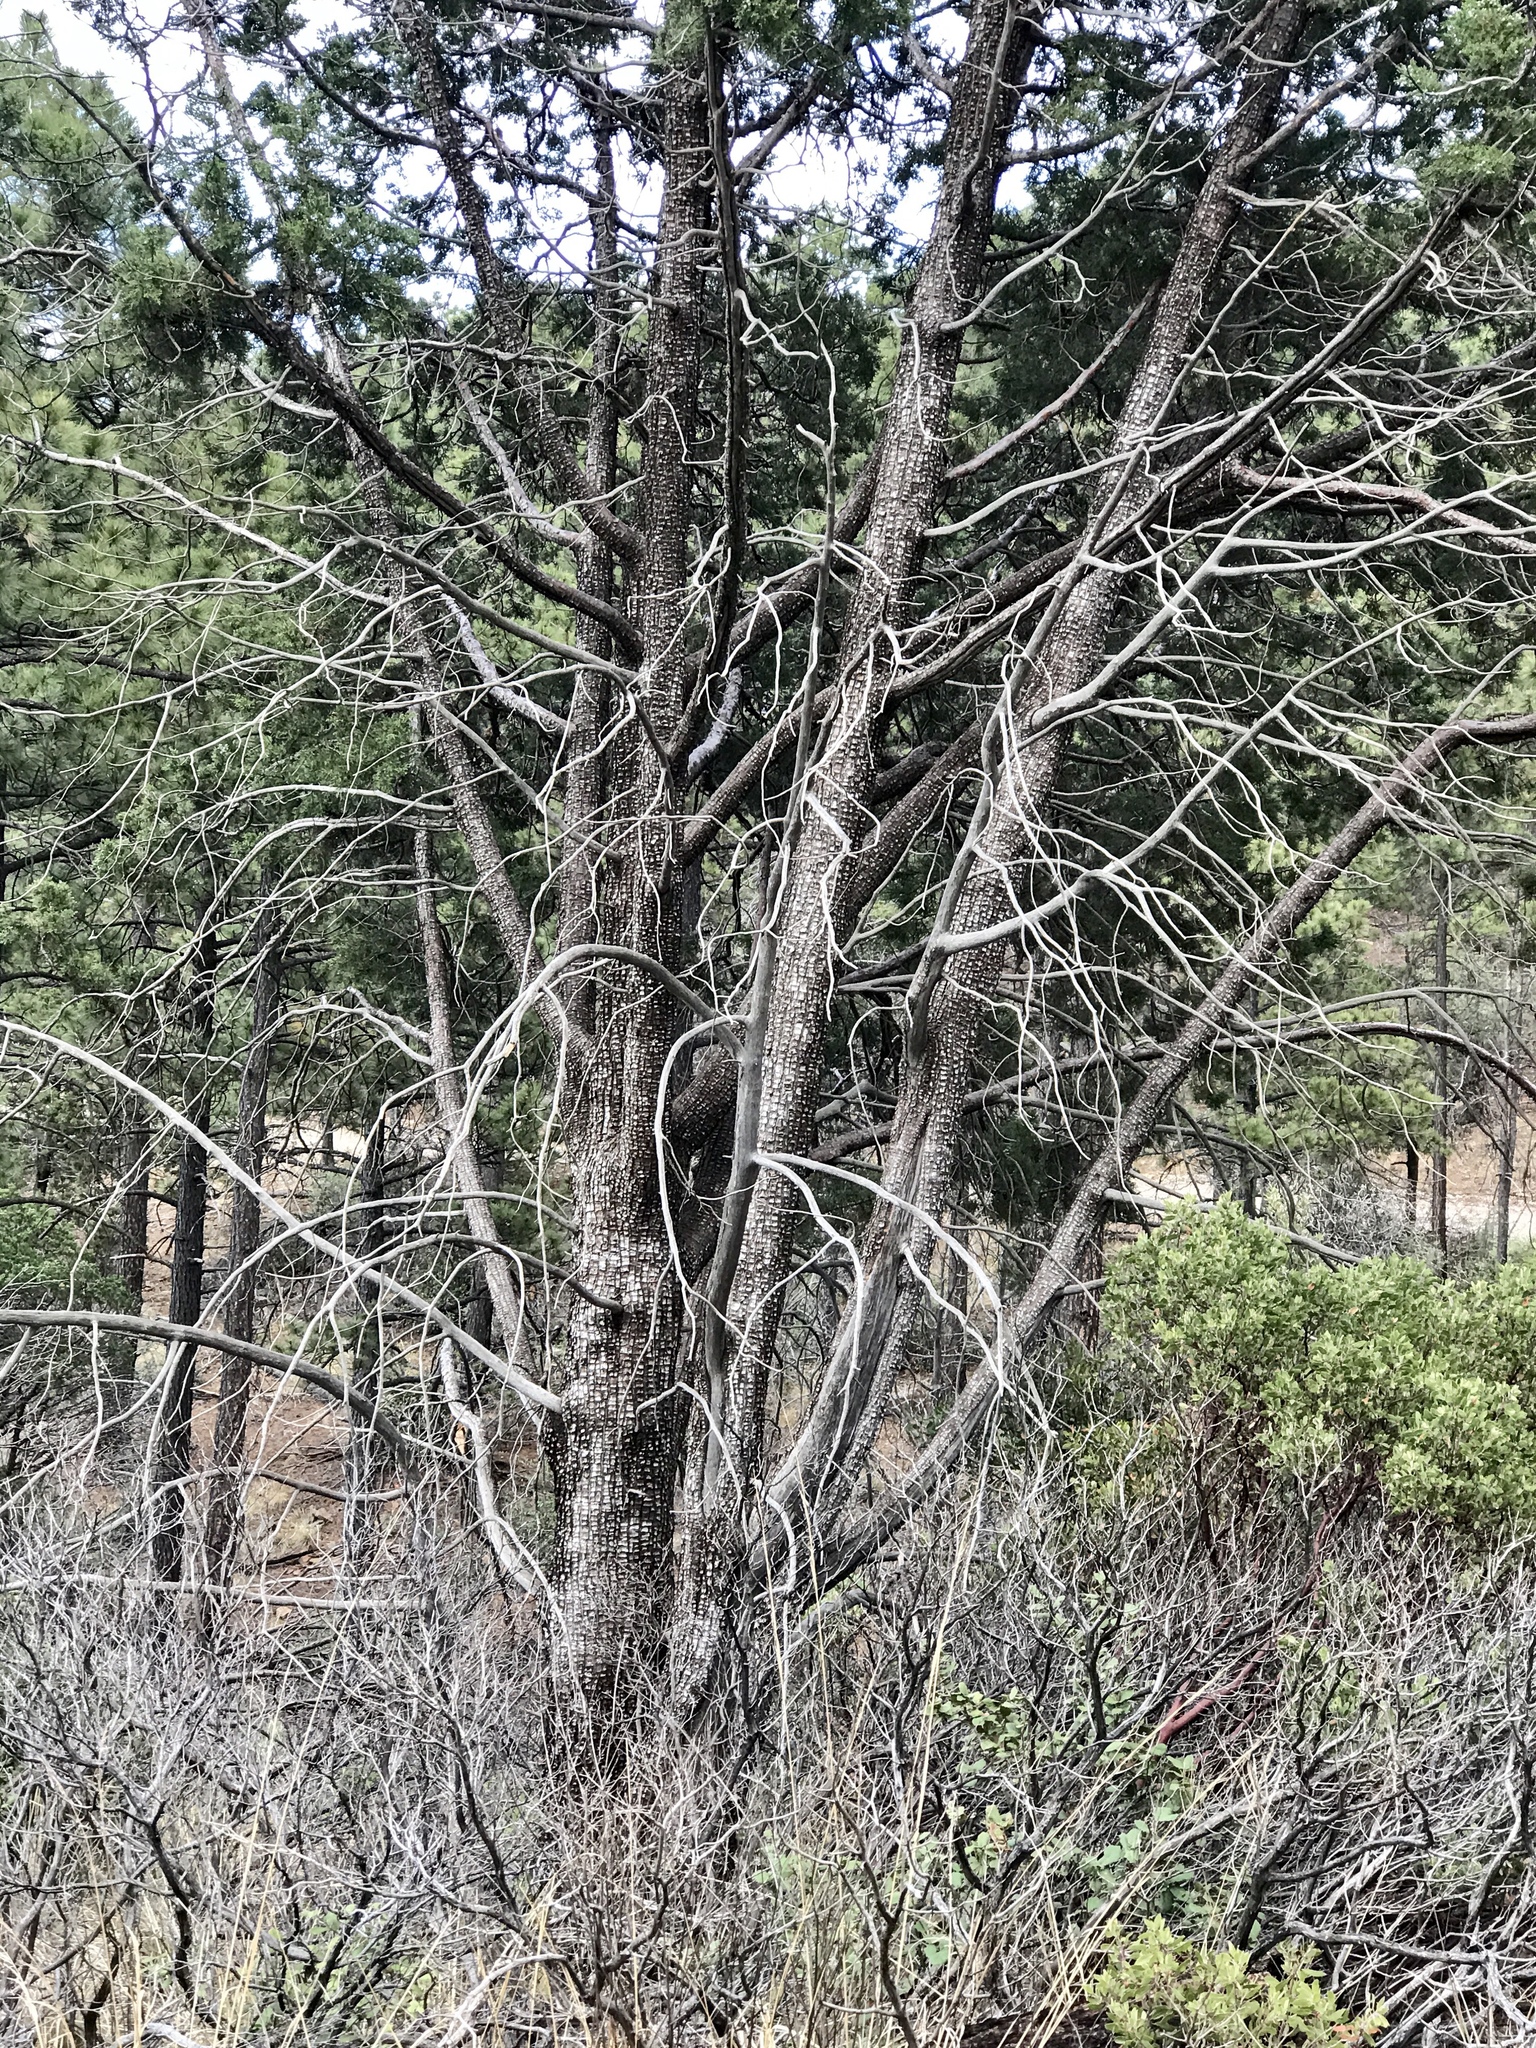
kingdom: Plantae
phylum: Tracheophyta
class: Pinopsida
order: Pinales
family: Cupressaceae
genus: Juniperus
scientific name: Juniperus deppeana
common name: Alligator juniper
